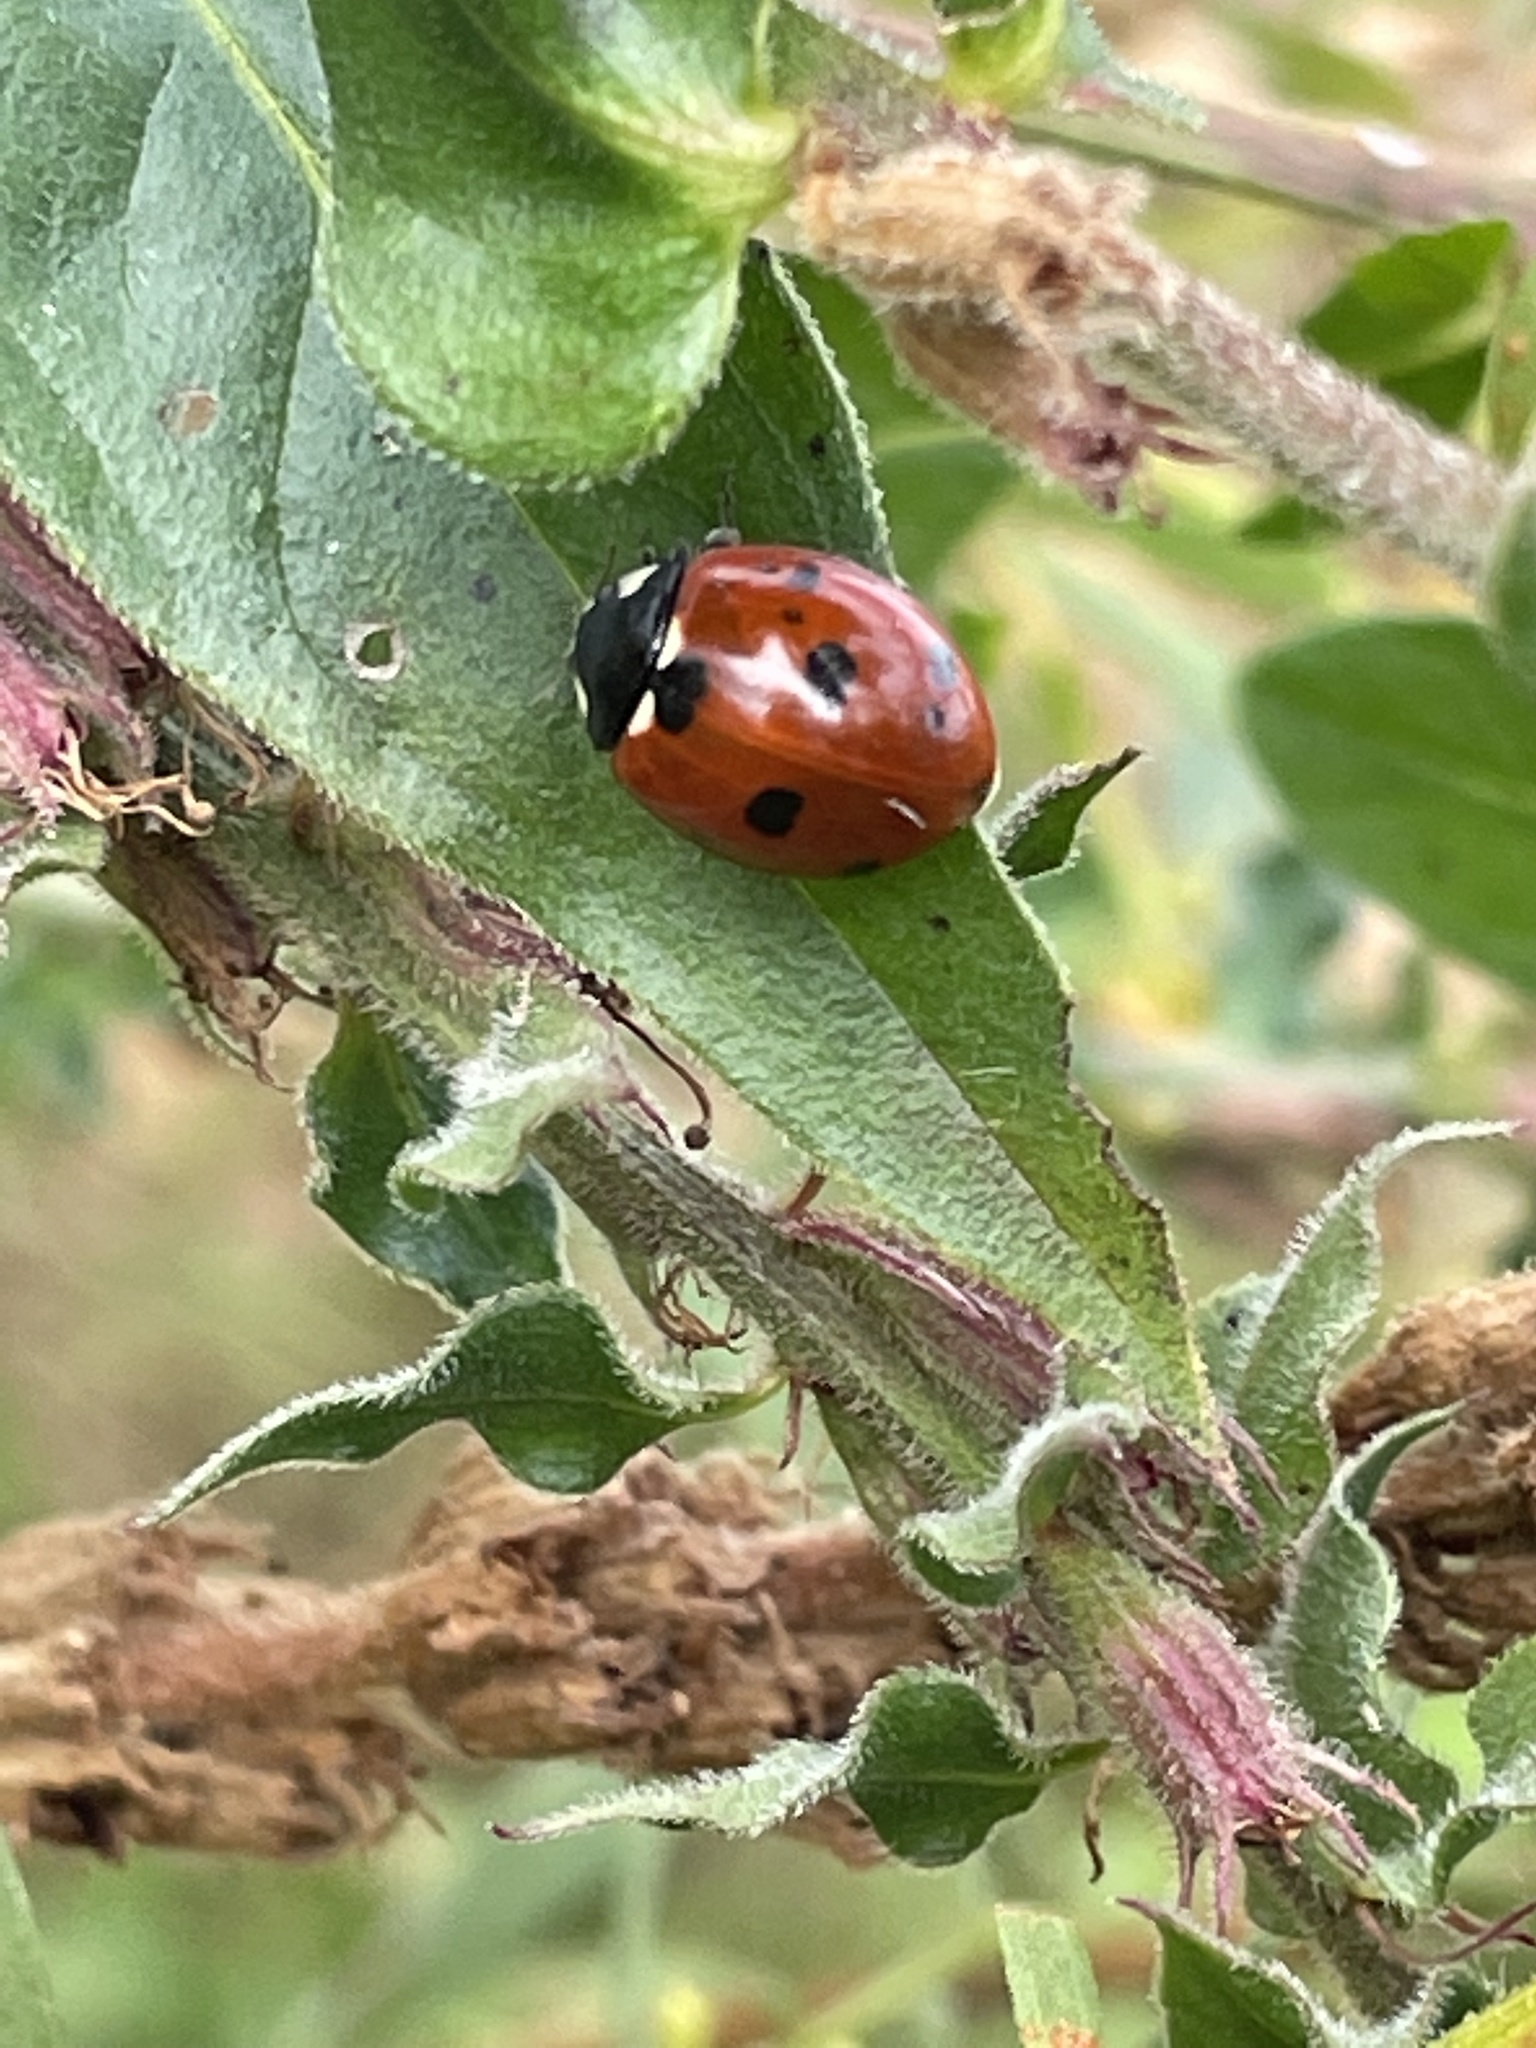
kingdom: Animalia
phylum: Arthropoda
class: Insecta
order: Coleoptera
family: Coccinellidae
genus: Coccinella
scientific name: Coccinella septempunctata
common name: Sevenspotted lady beetle
